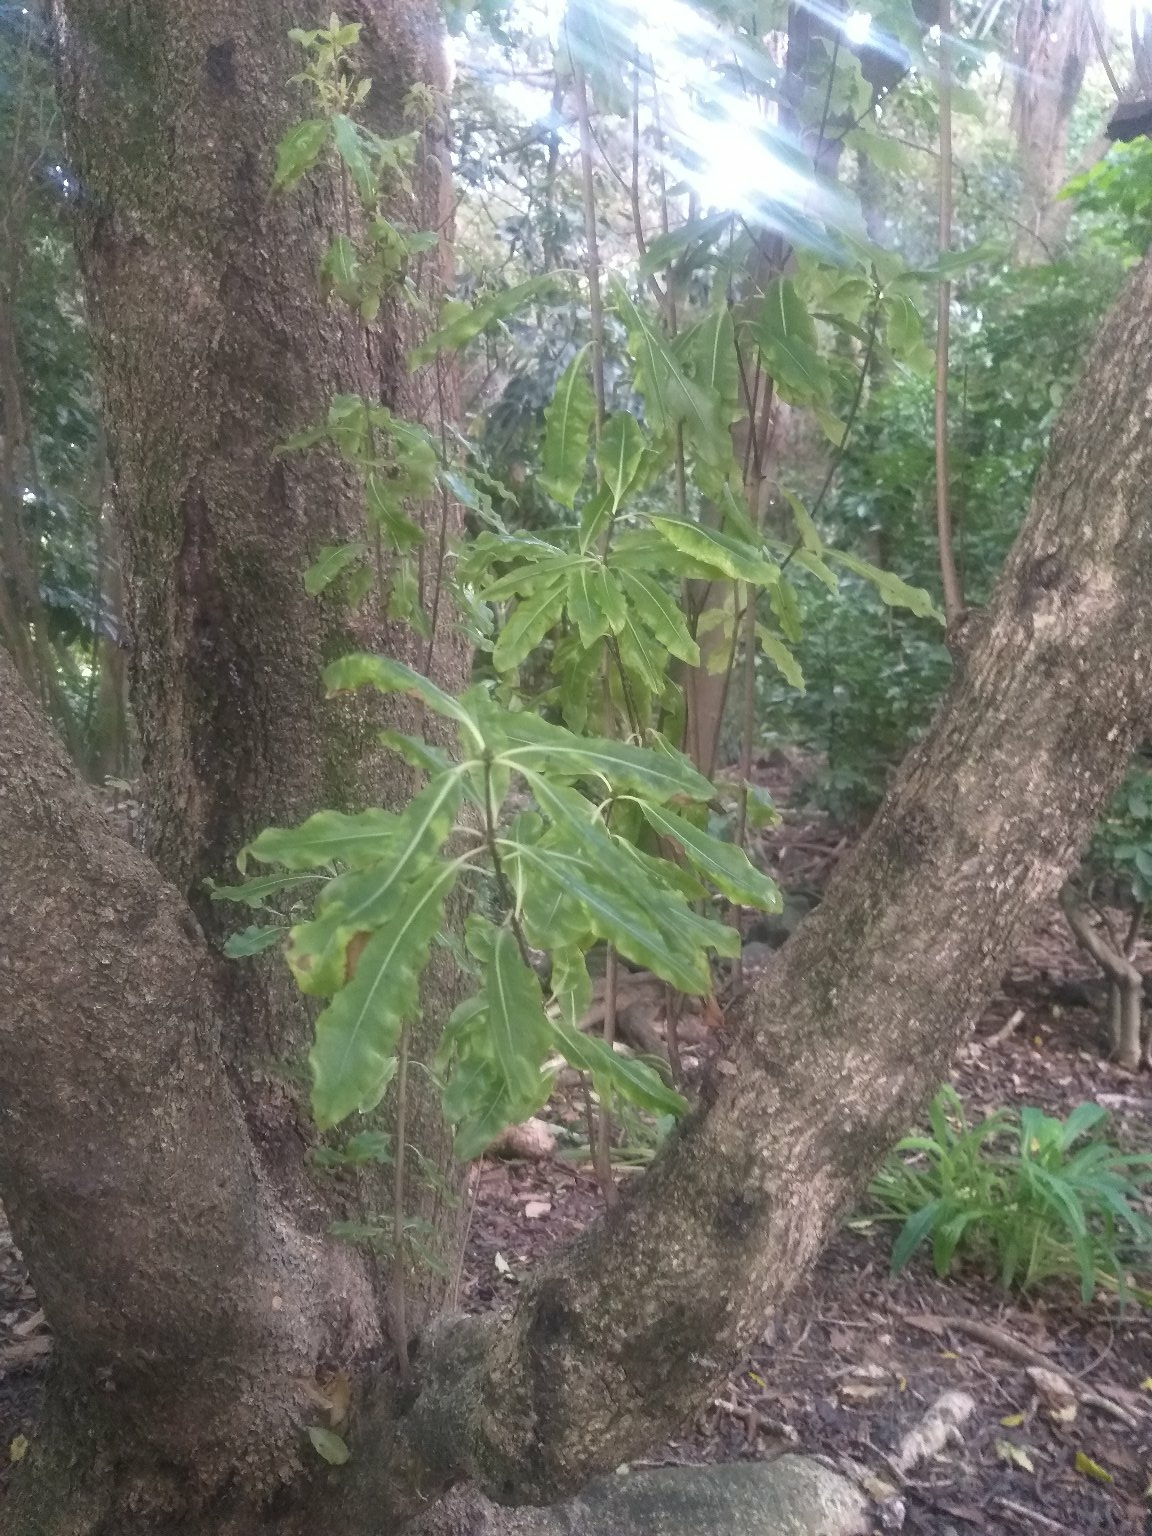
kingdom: Plantae
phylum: Tracheophyta
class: Magnoliopsida
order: Apiales
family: Pittosporaceae
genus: Pittosporum
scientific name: Pittosporum eugenioides
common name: Lemonwood
